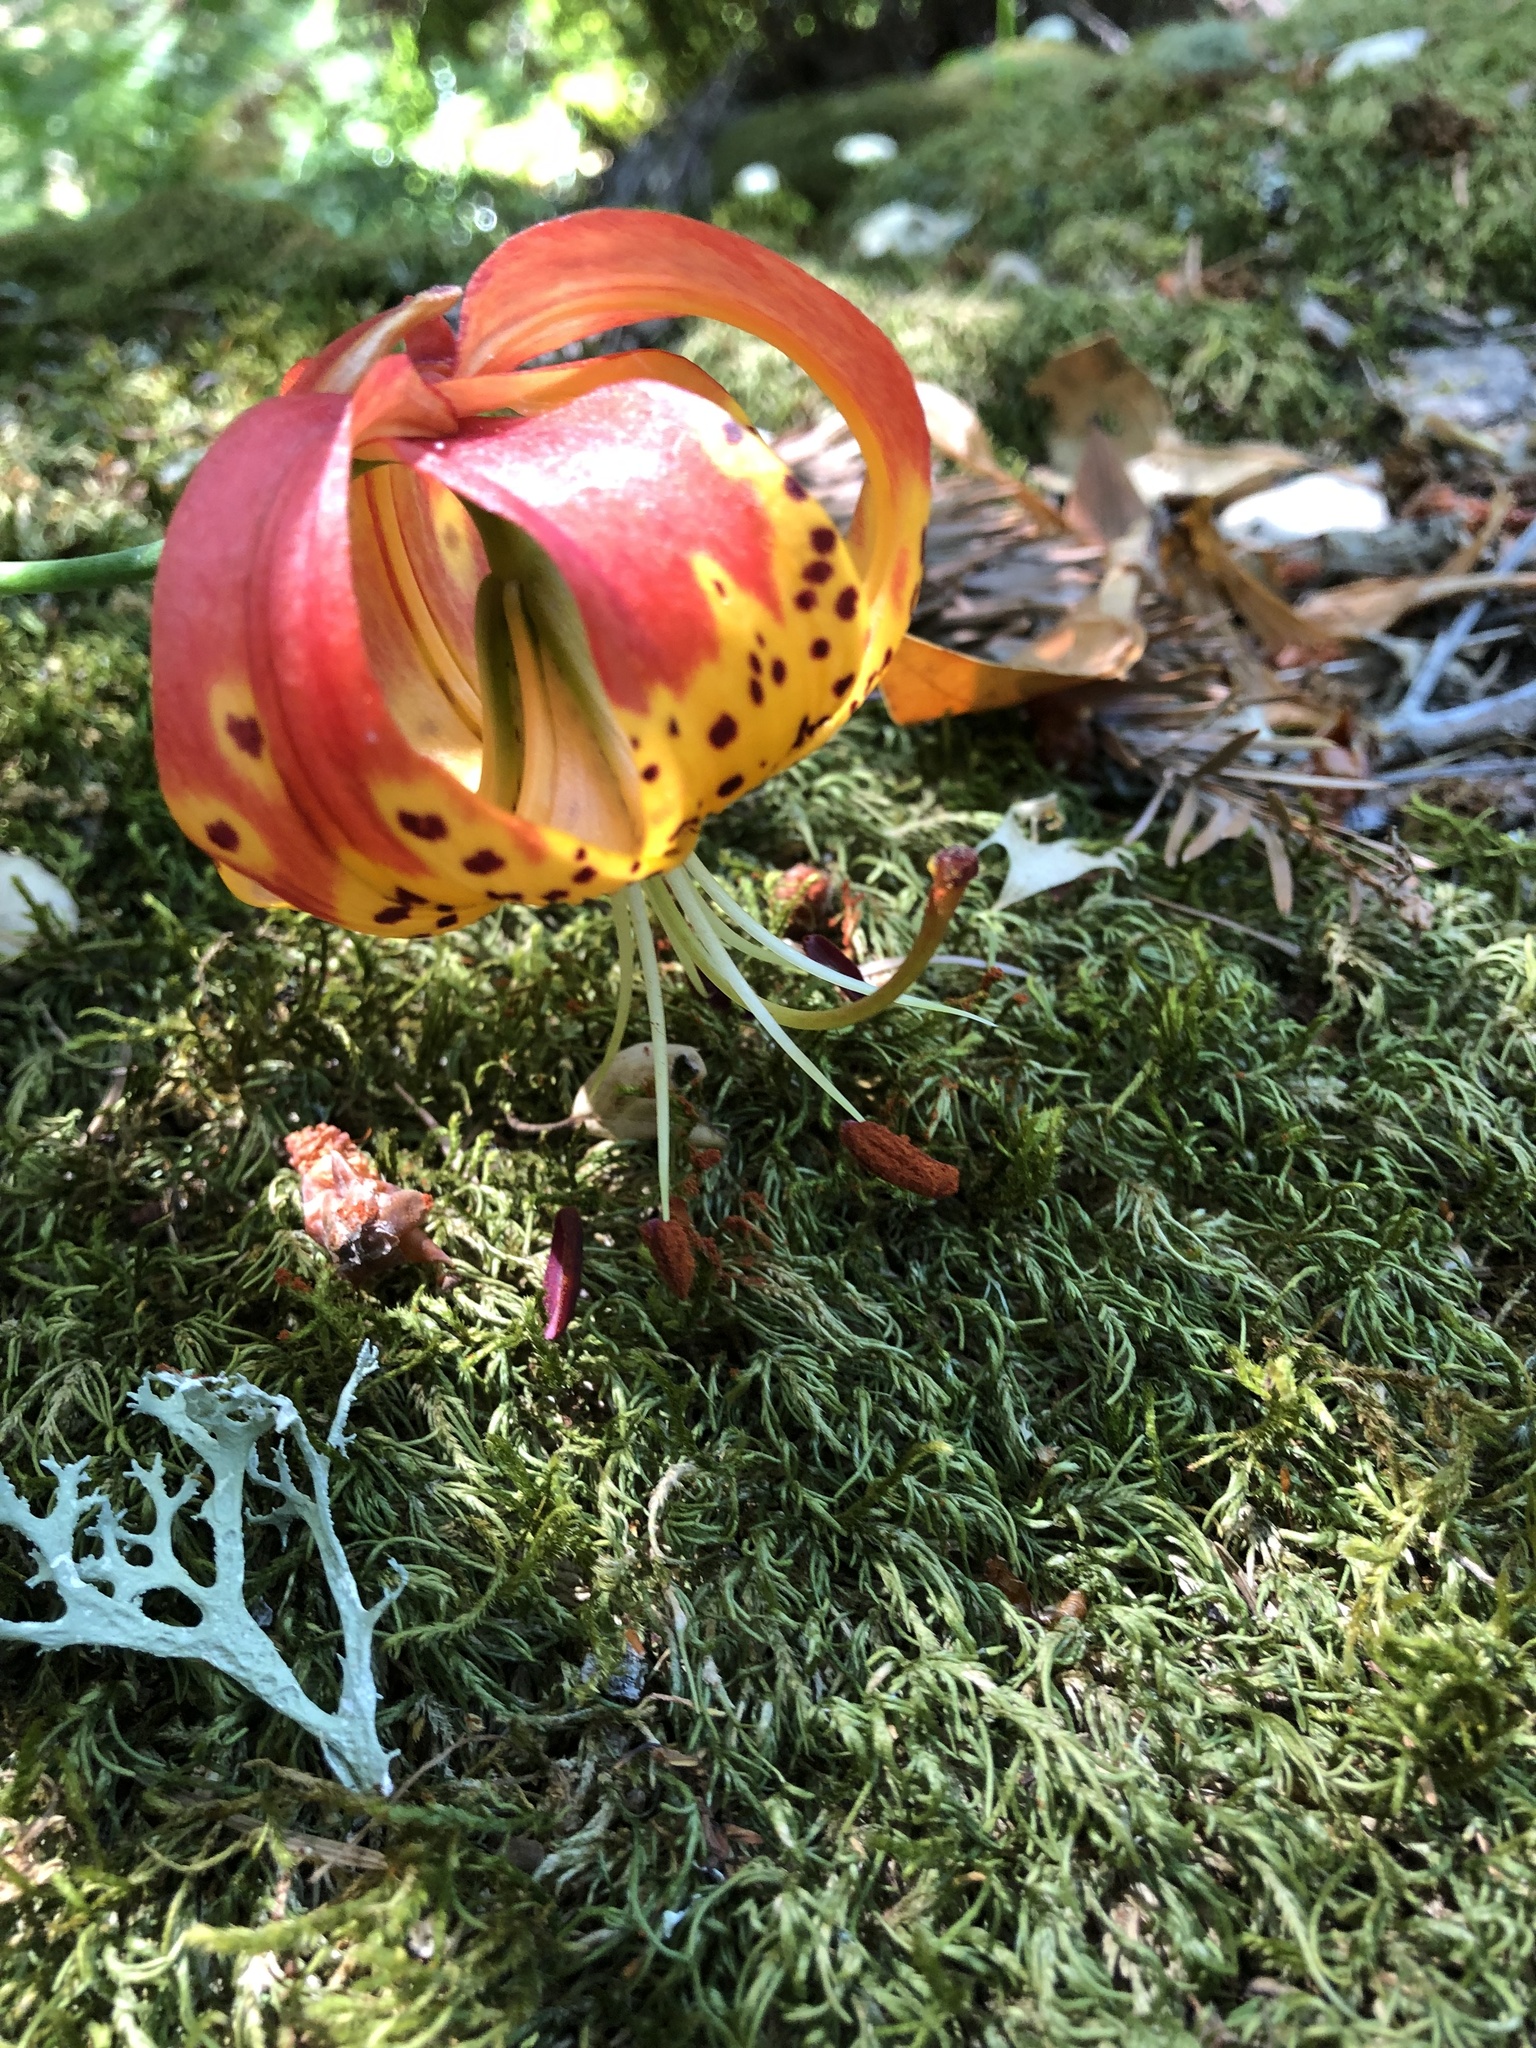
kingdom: Plantae
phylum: Tracheophyta
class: Liliopsida
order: Liliales
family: Liliaceae
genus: Lilium
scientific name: Lilium pardalinum
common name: Panther lily
